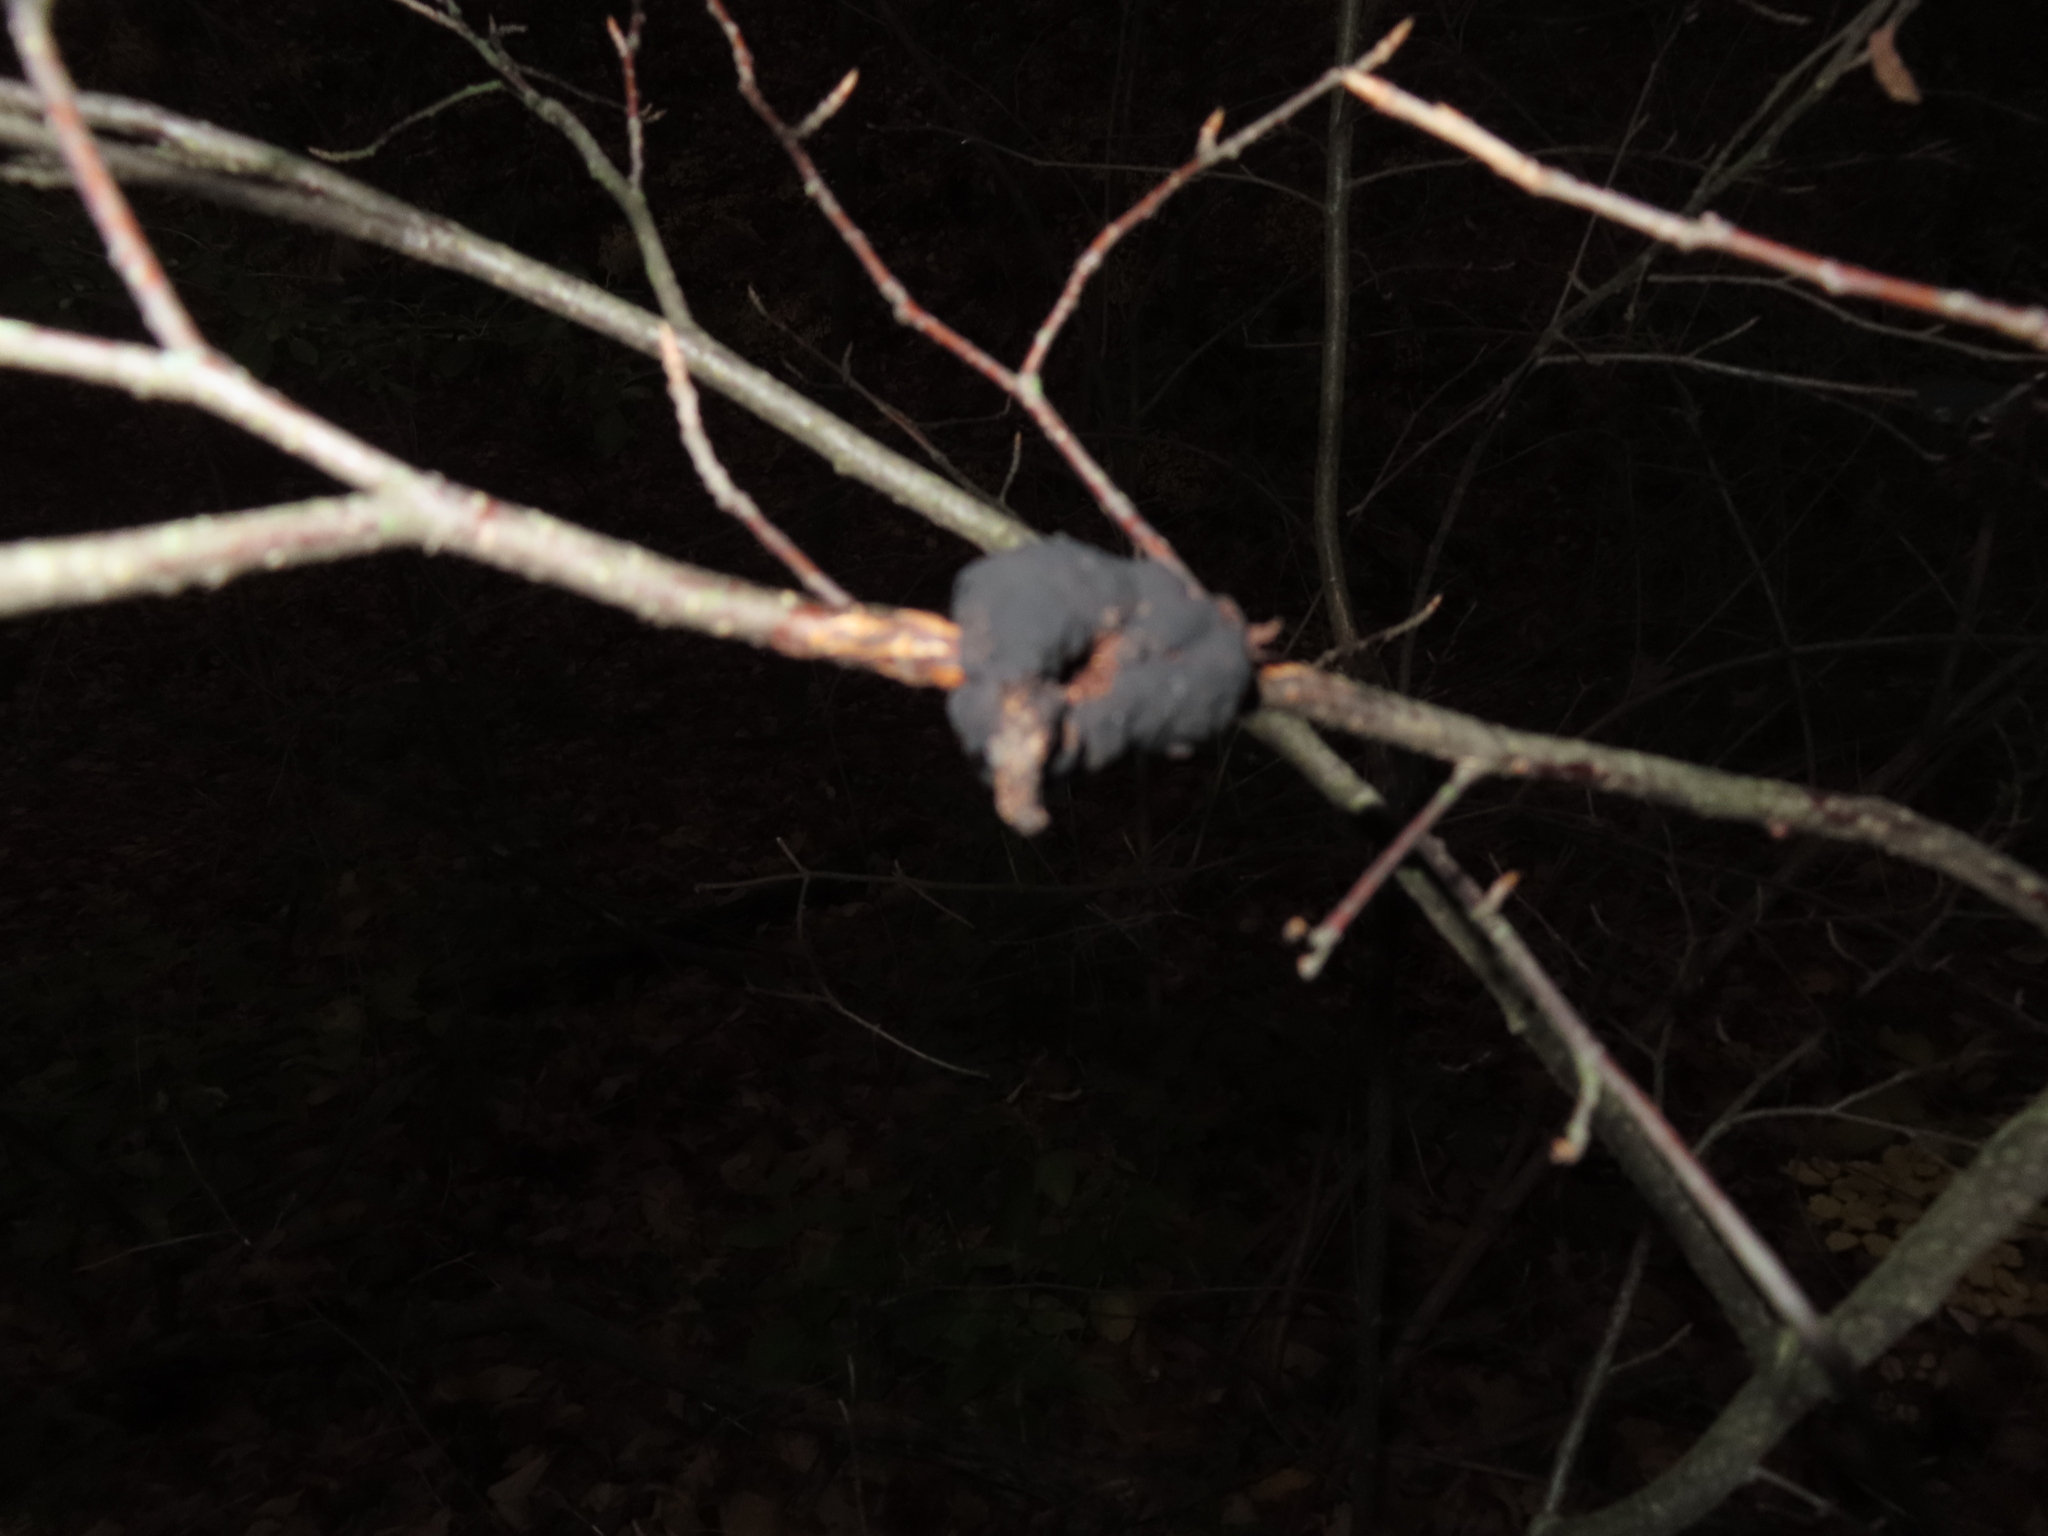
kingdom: Fungi
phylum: Ascomycota
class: Dothideomycetes
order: Venturiales
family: Venturiaceae
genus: Apiosporina
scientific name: Apiosporina morbosa
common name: Black knot
